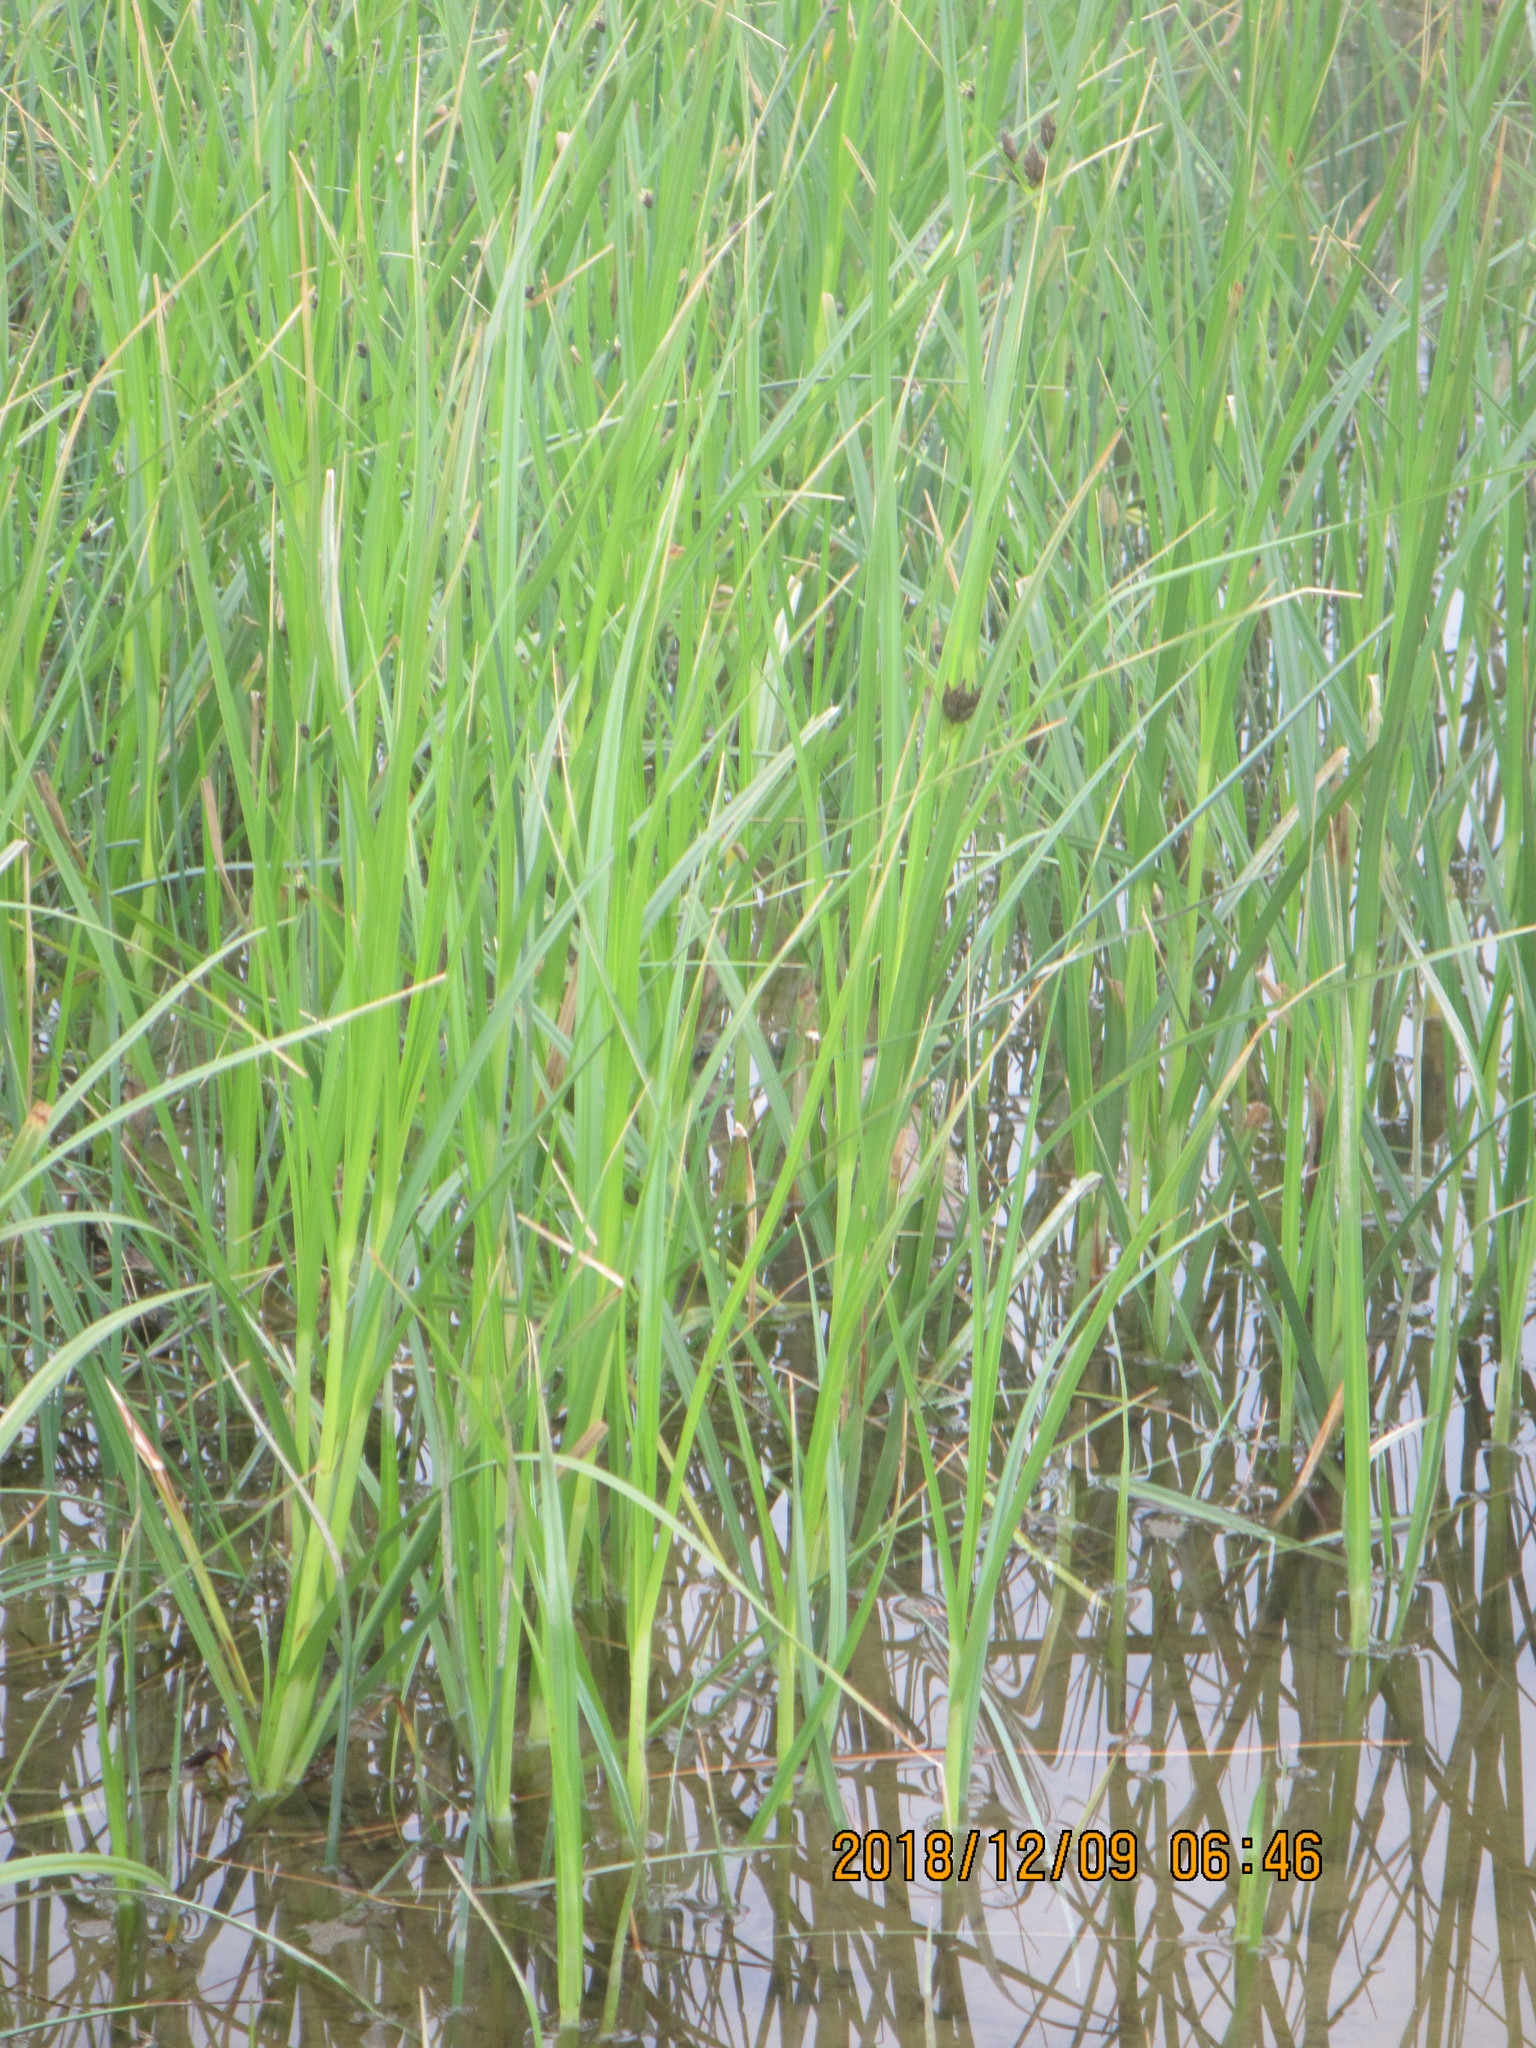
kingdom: Plantae
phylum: Tracheophyta
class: Liliopsida
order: Poales
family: Cyperaceae
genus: Schoenoplectus
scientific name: Schoenoplectus pungens
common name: Sharp club-rush
